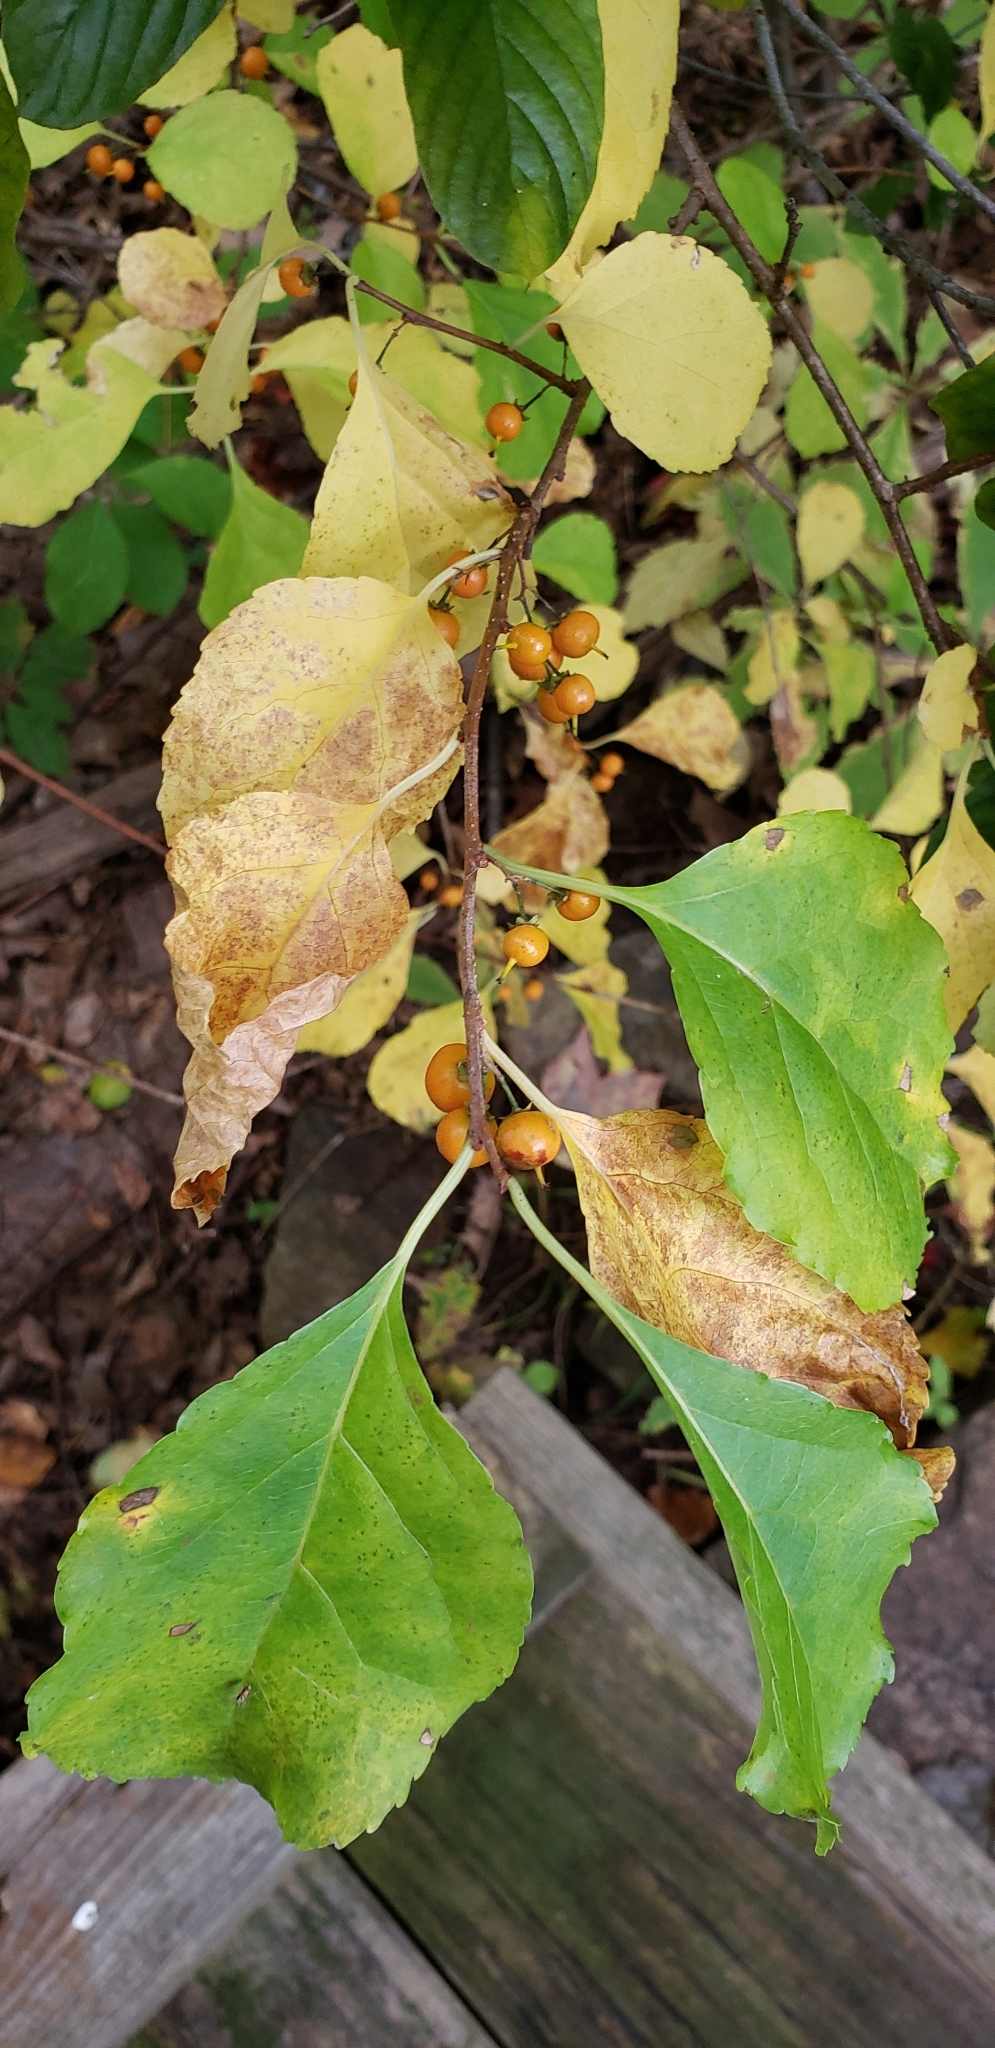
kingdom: Plantae
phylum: Tracheophyta
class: Magnoliopsida
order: Celastrales
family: Celastraceae
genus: Celastrus
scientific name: Celastrus orbiculatus
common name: Oriental bittersweet
